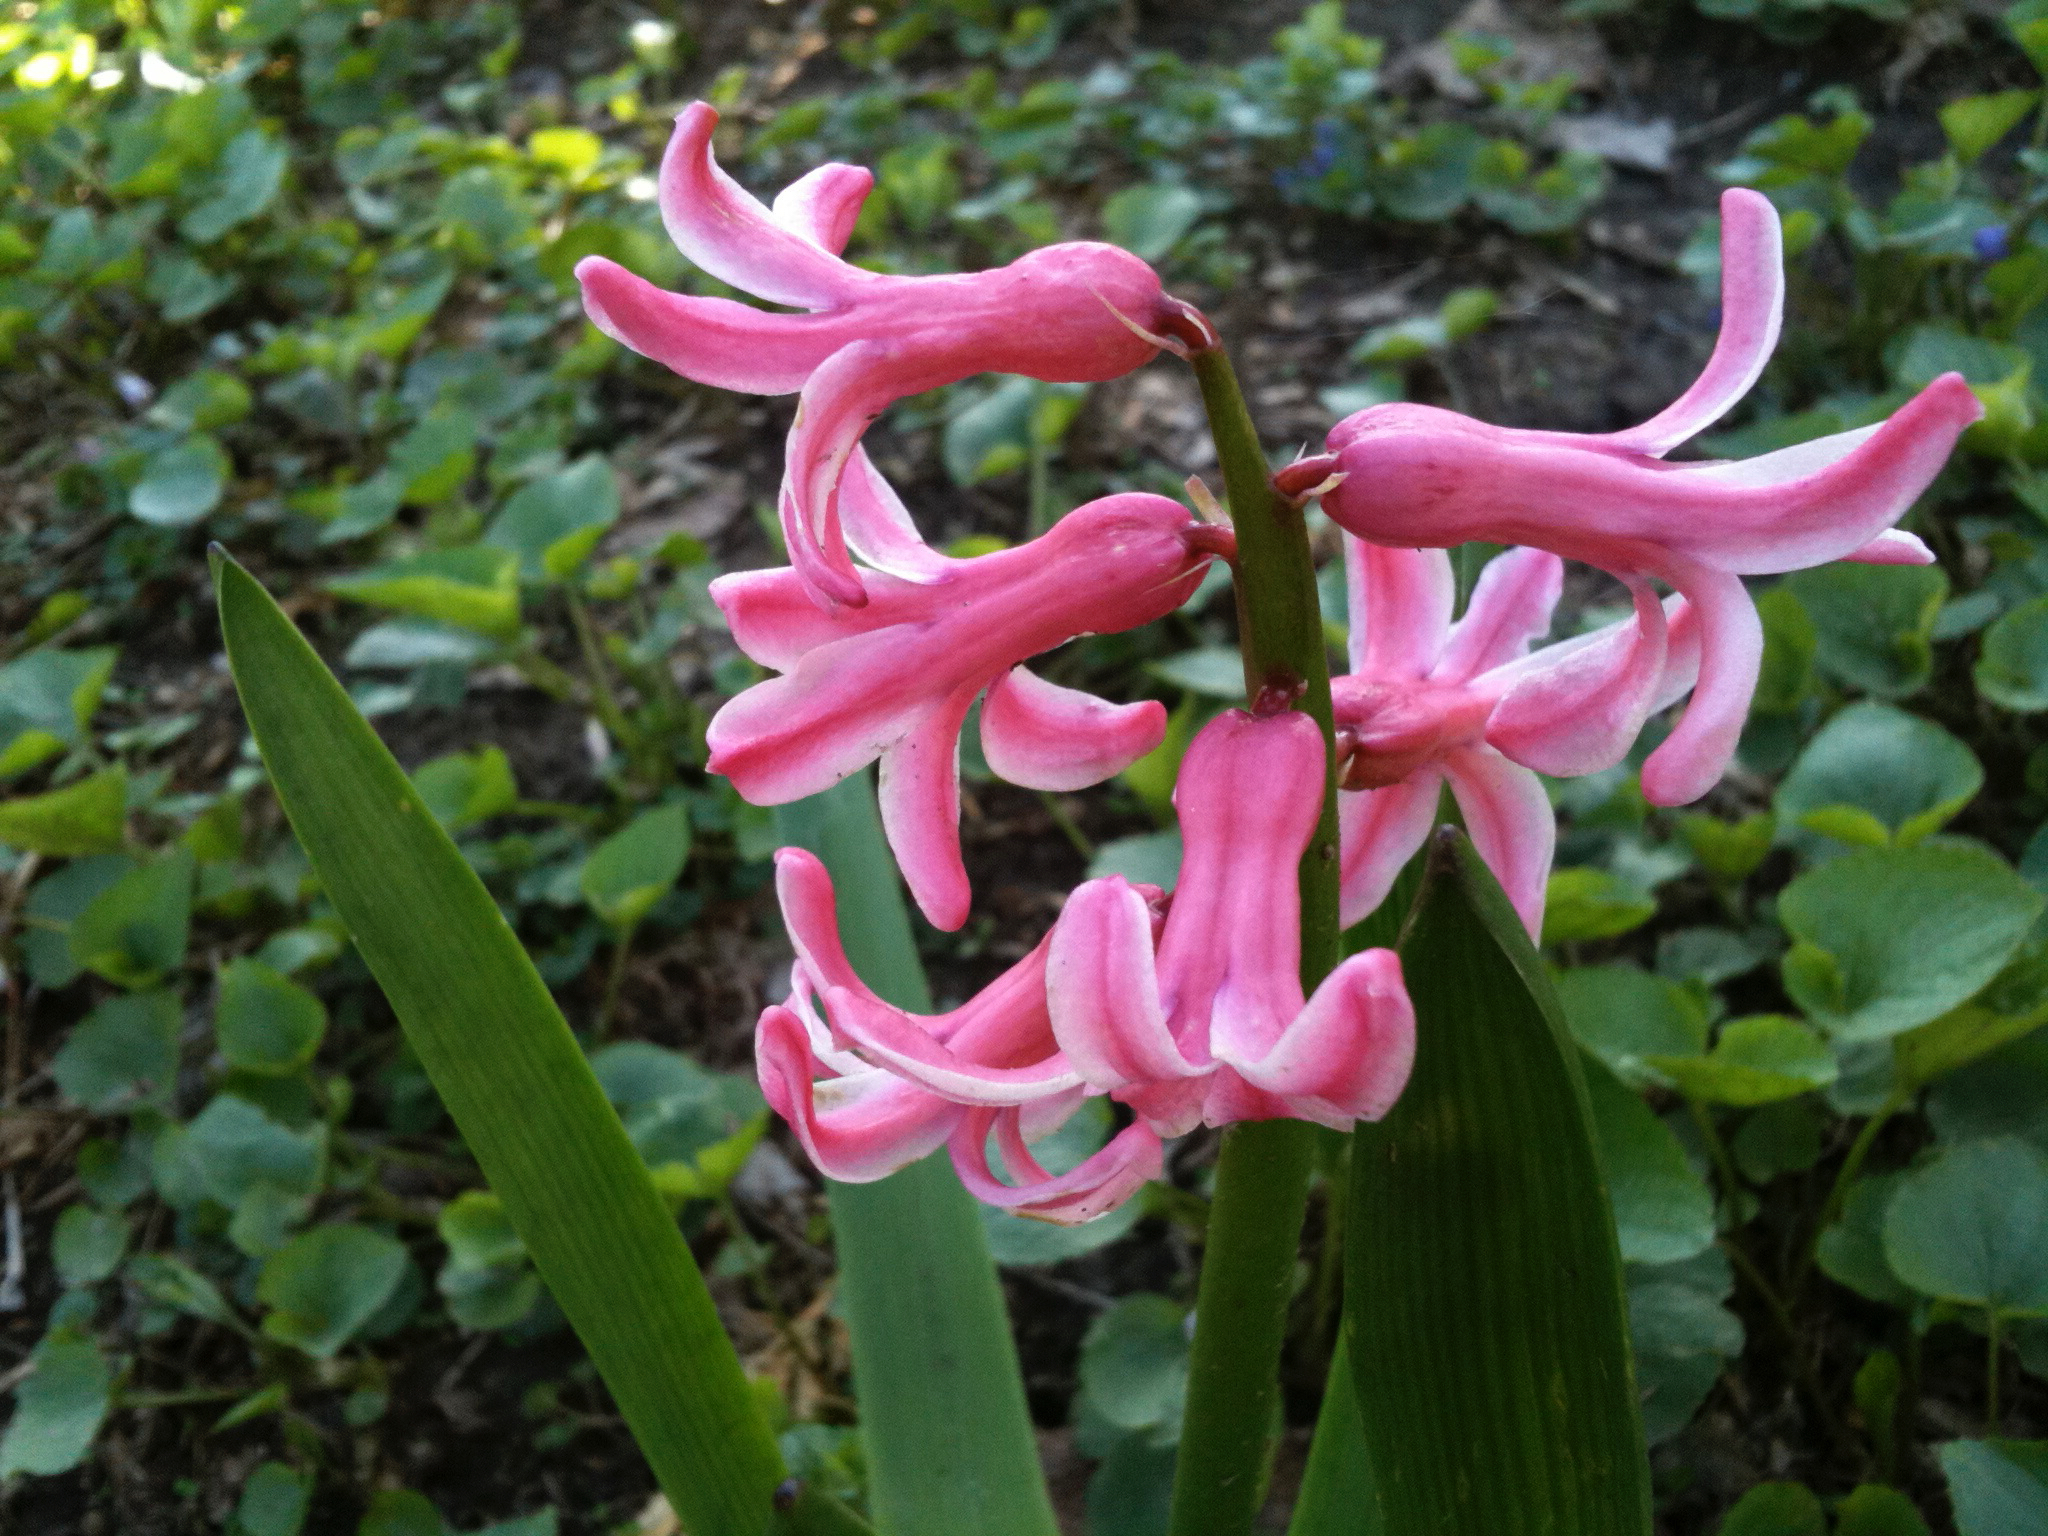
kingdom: Plantae
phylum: Tracheophyta
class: Liliopsida
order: Asparagales
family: Asparagaceae
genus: Hyacinthus
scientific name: Hyacinthus orientalis
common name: Hyacinth
